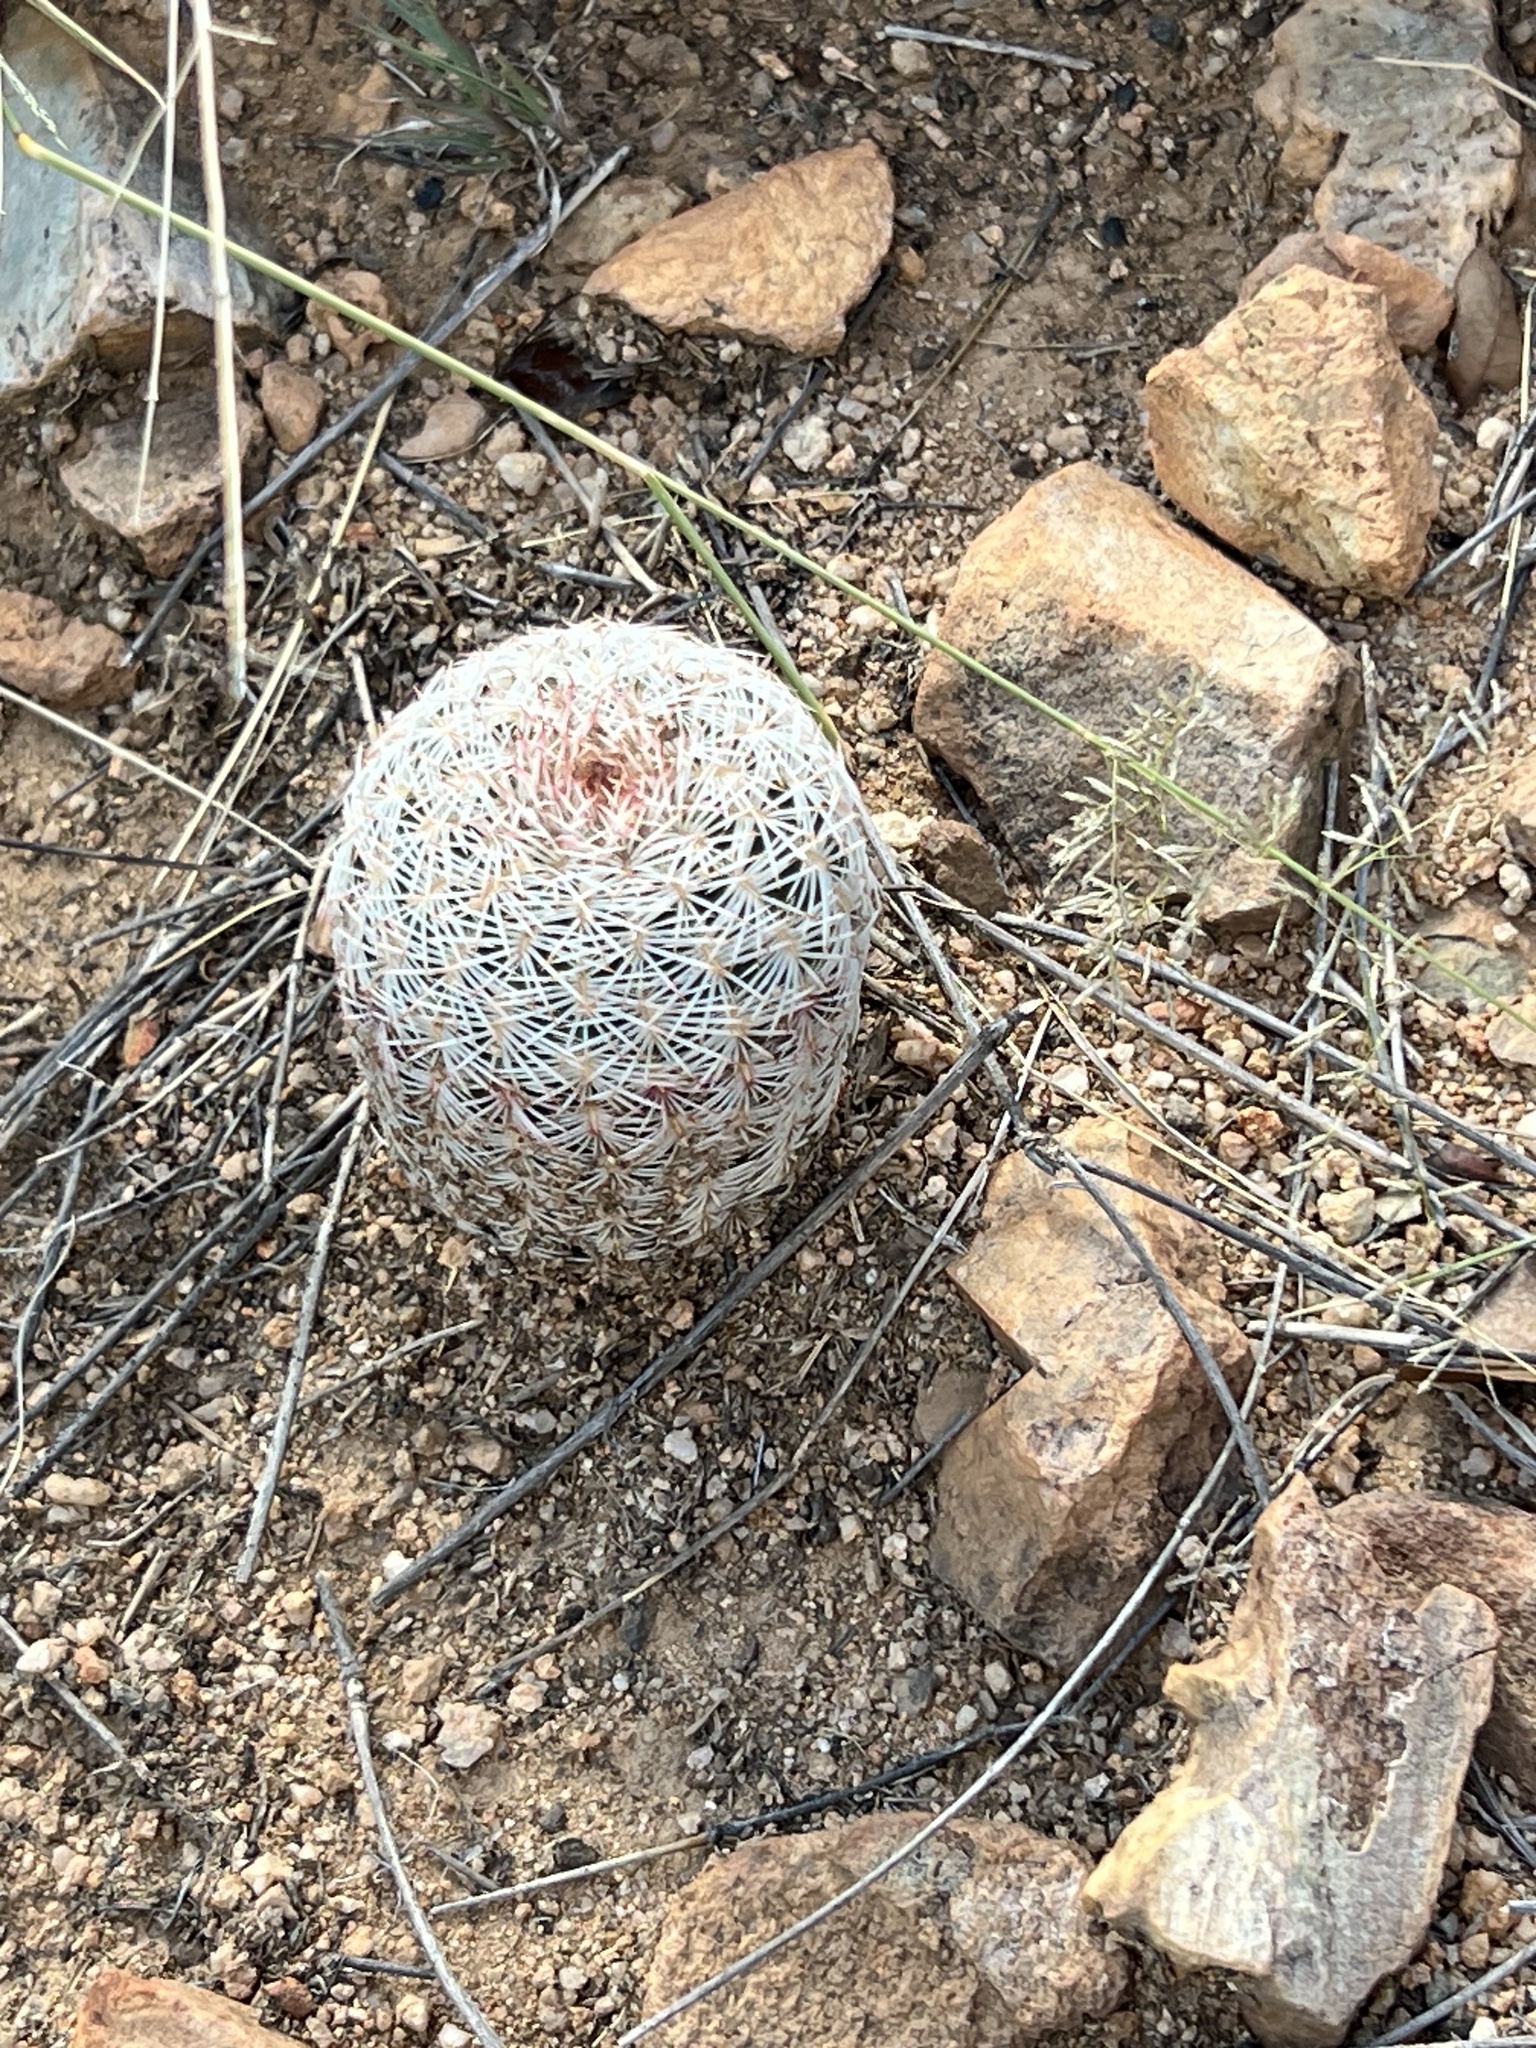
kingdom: Plantae
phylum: Tracheophyta
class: Magnoliopsida
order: Caryophyllales
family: Cactaceae
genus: Echinocereus
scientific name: Echinocereus rigidissimus
